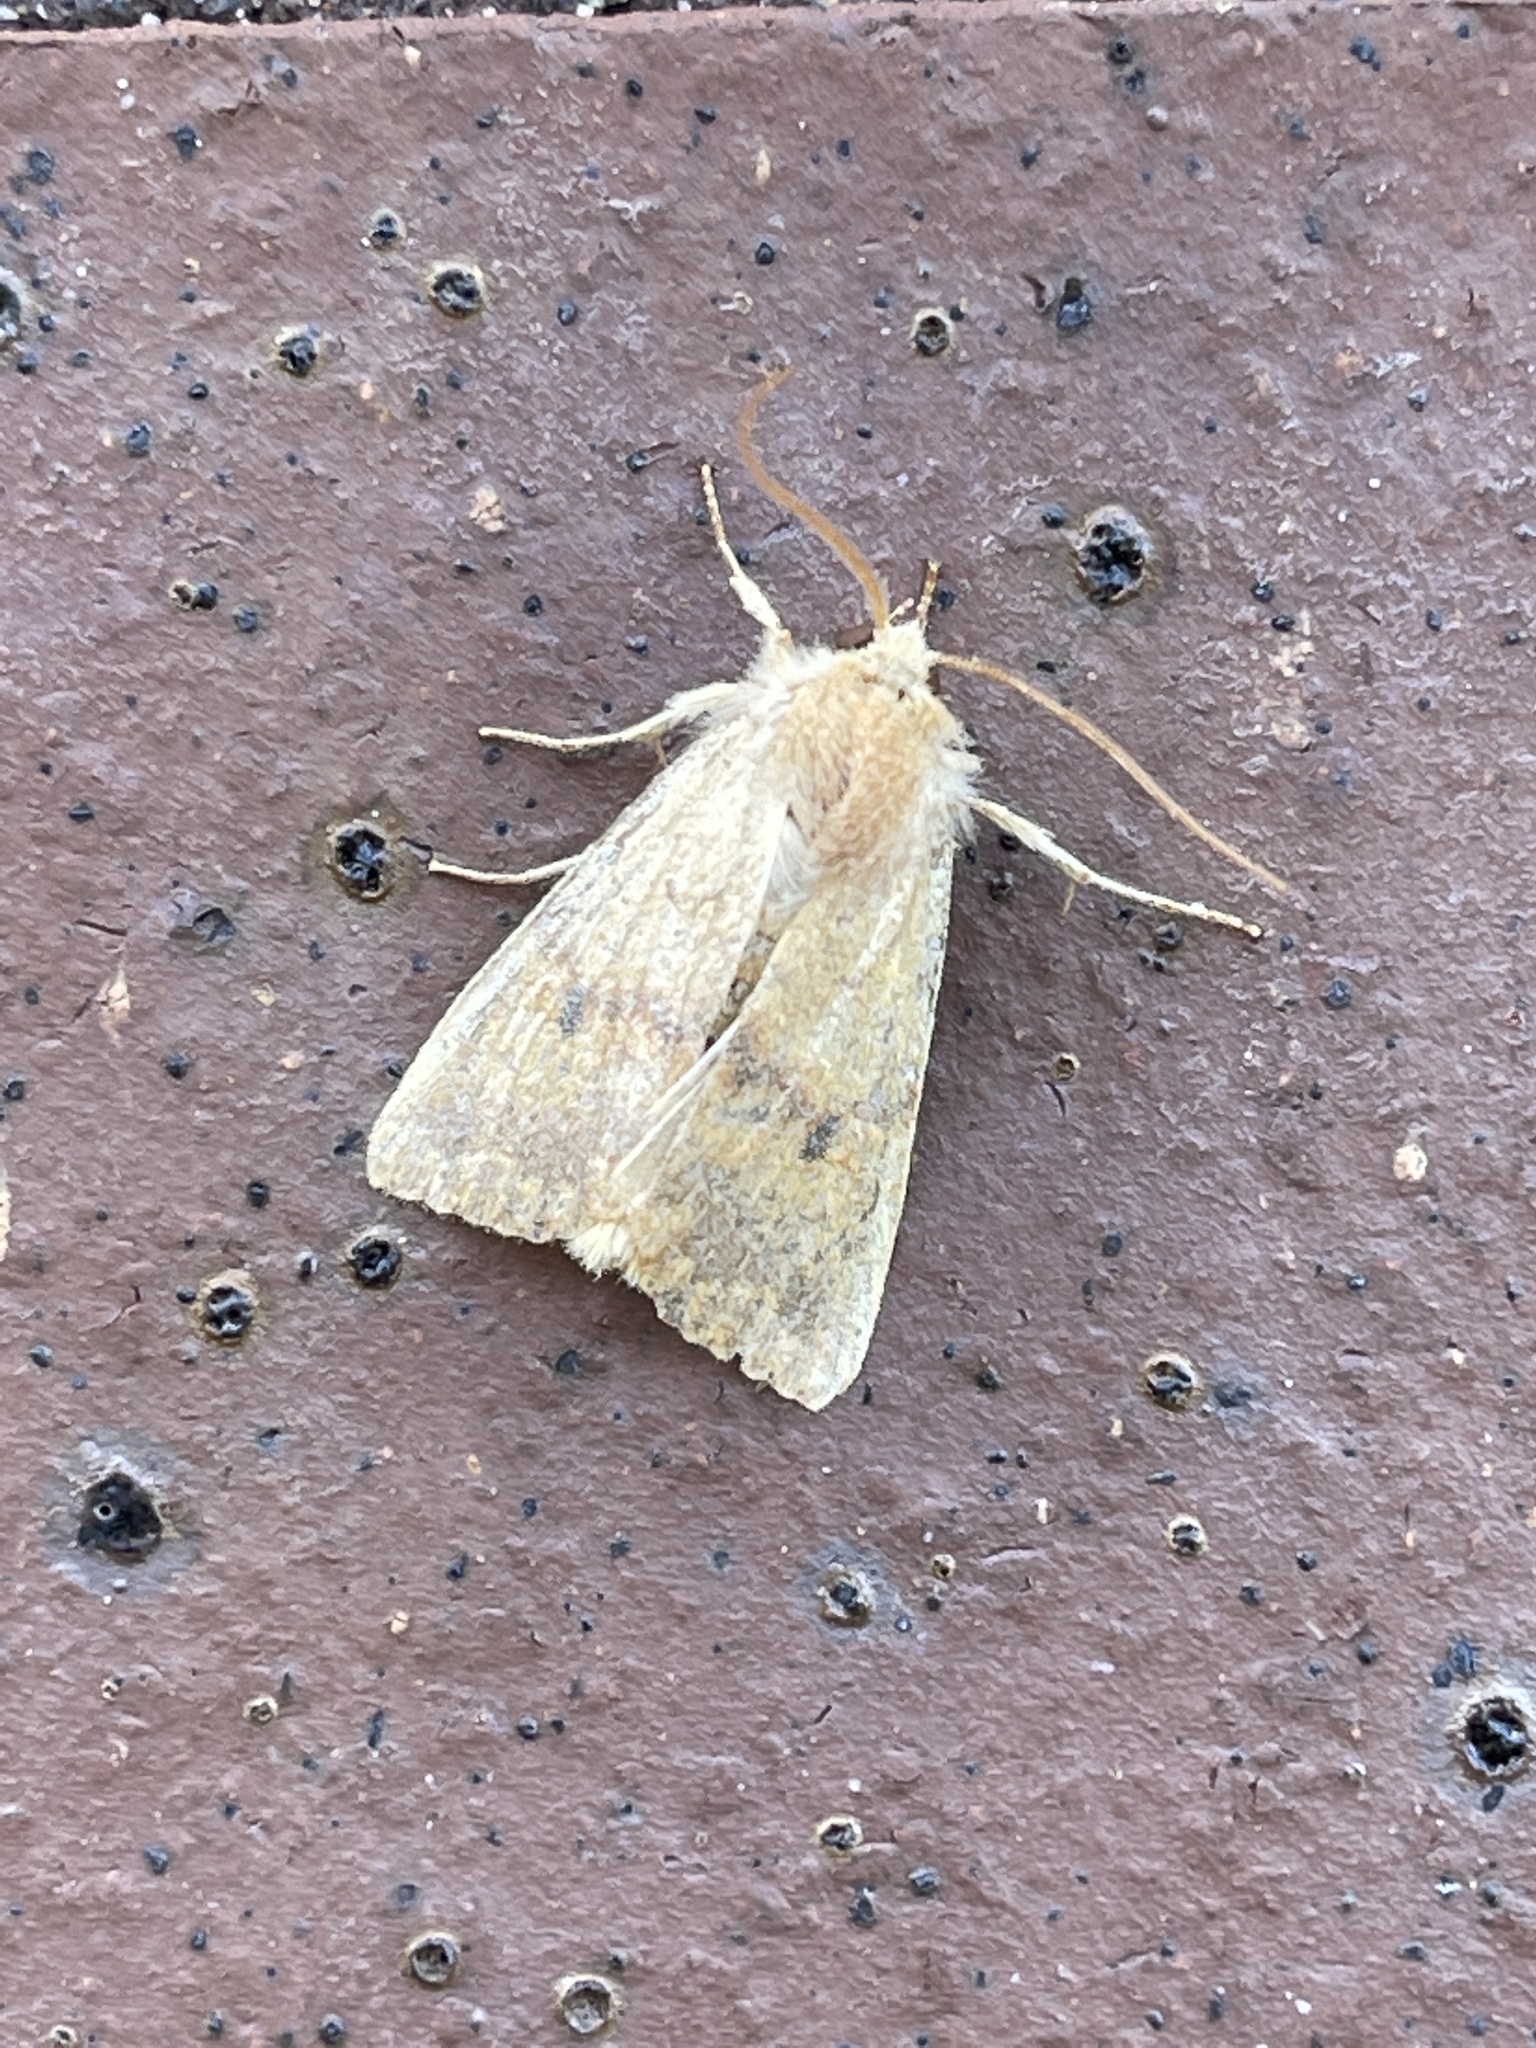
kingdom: Animalia
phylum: Arthropoda
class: Insecta
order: Lepidoptera
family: Noctuidae
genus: Agrochola
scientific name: Agrochola bicolorago
